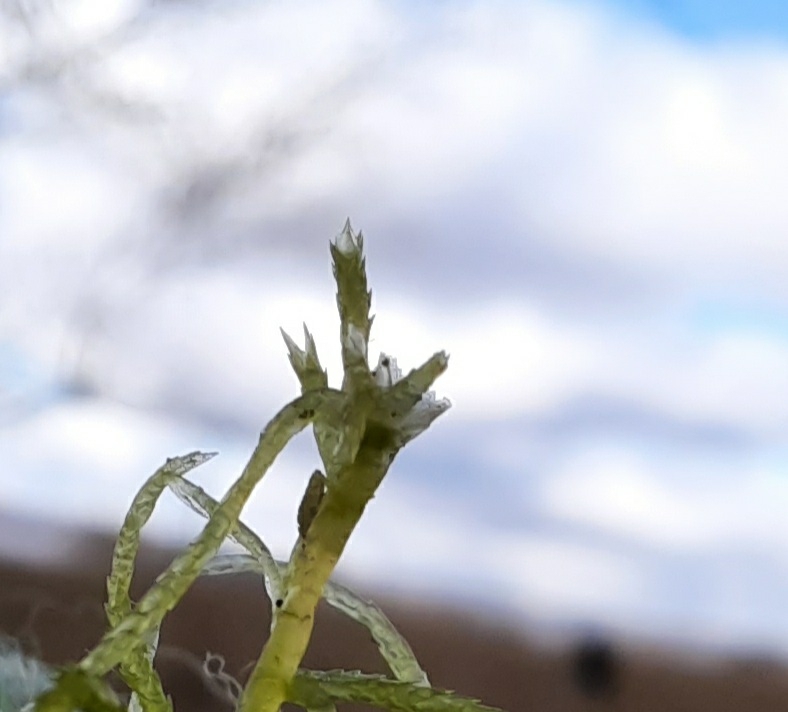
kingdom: Plantae
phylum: Bryophyta
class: Sphagnopsida
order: Sphagnales
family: Sphagnaceae
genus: Sphagnum
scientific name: Sphagnum fimbriatum
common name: Fringed peat moss
